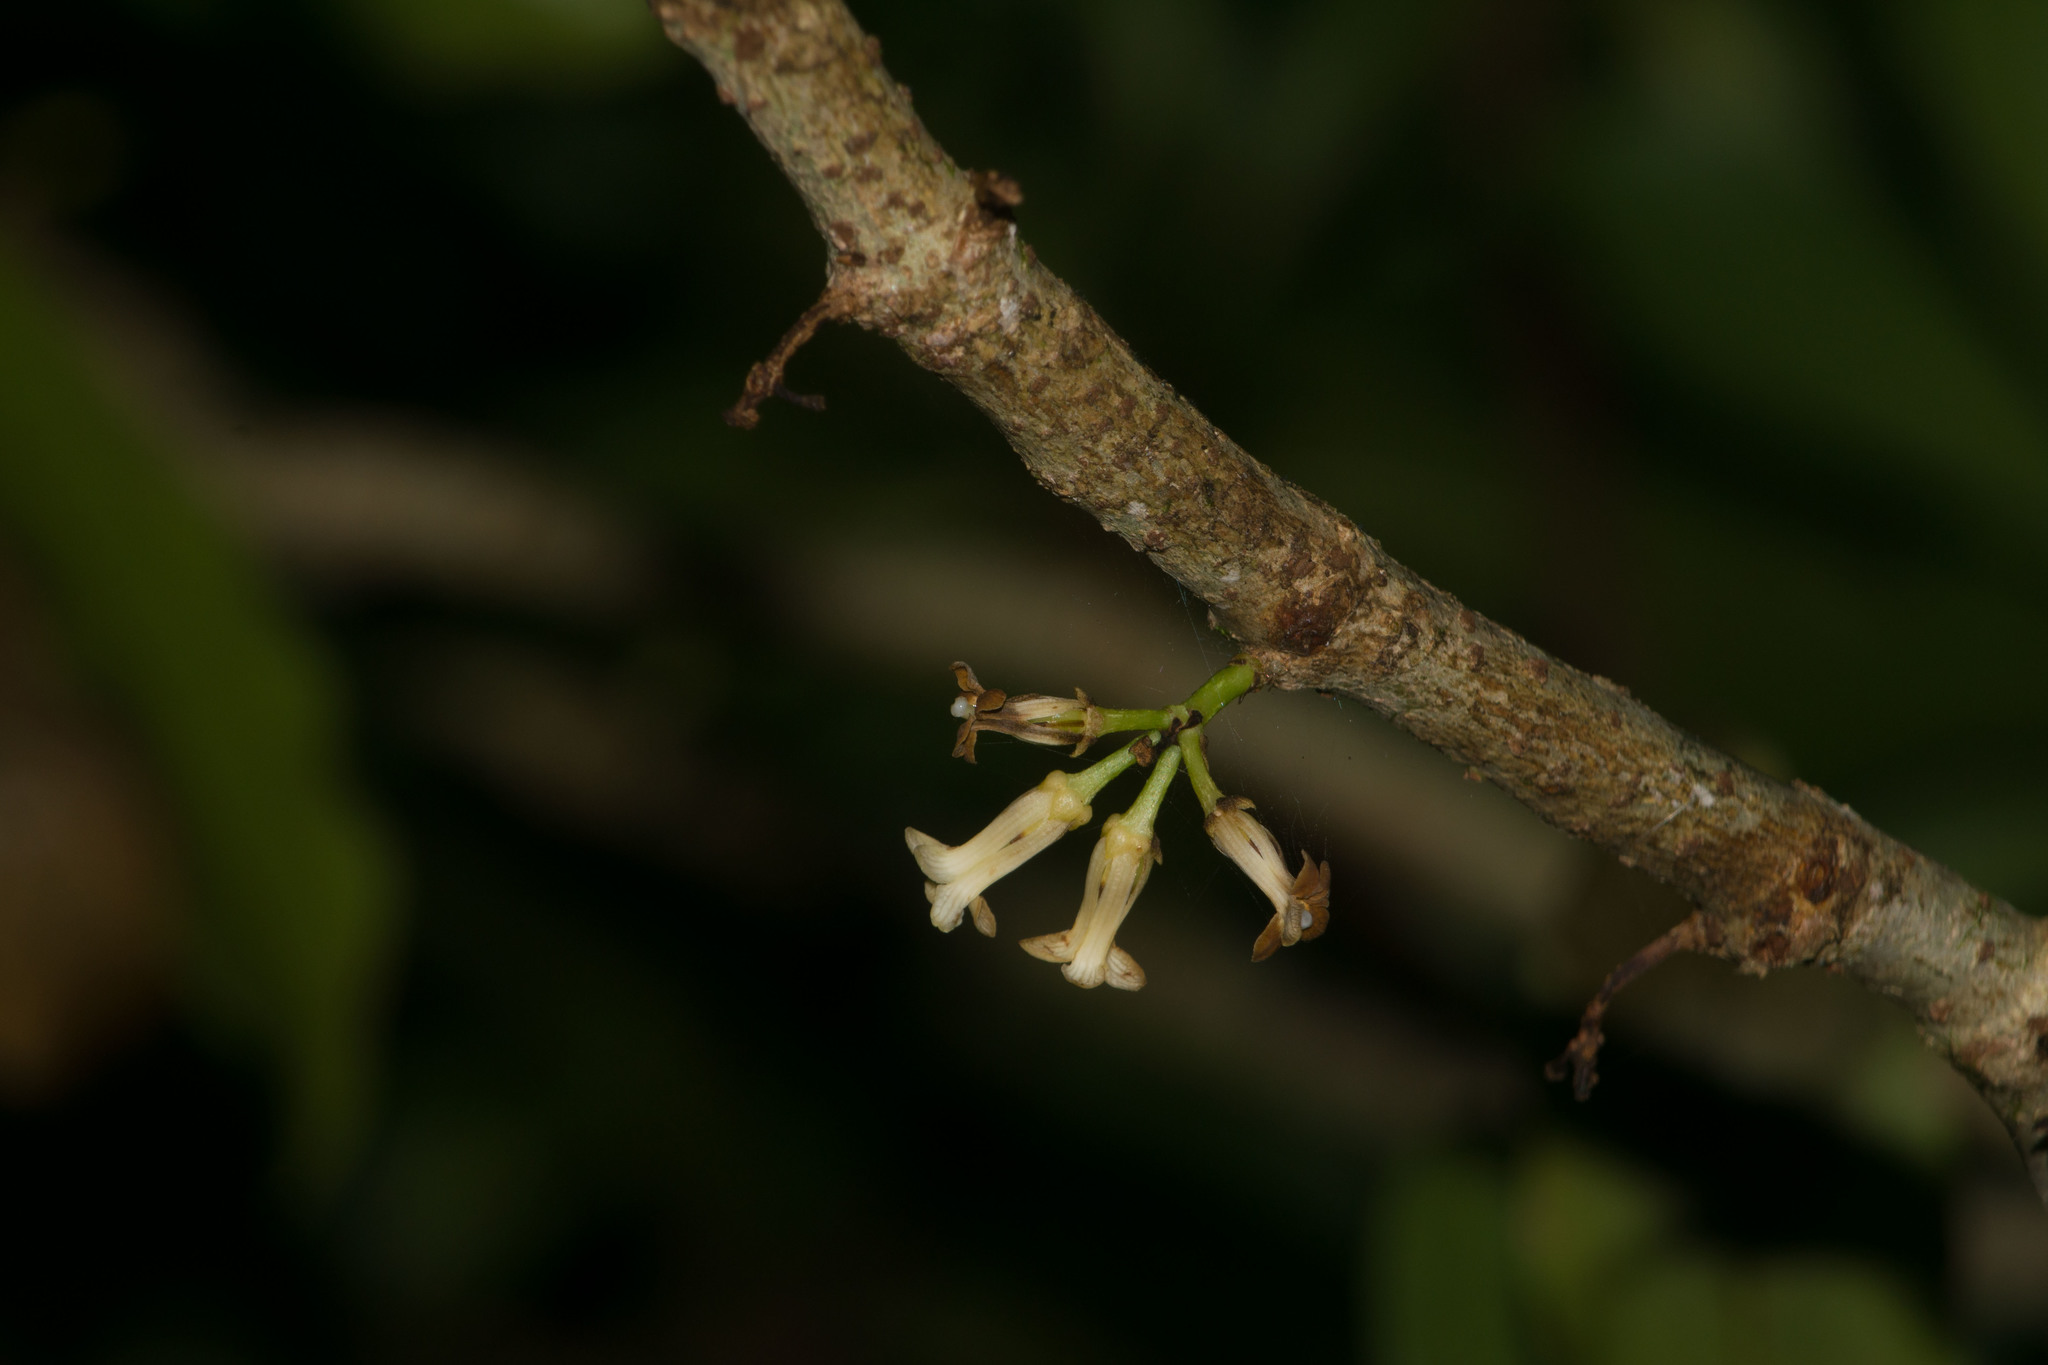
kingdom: Plantae
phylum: Tracheophyta
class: Magnoliopsida
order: Apiales
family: Pittosporaceae
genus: Pittosporum
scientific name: Pittosporum glabrum
